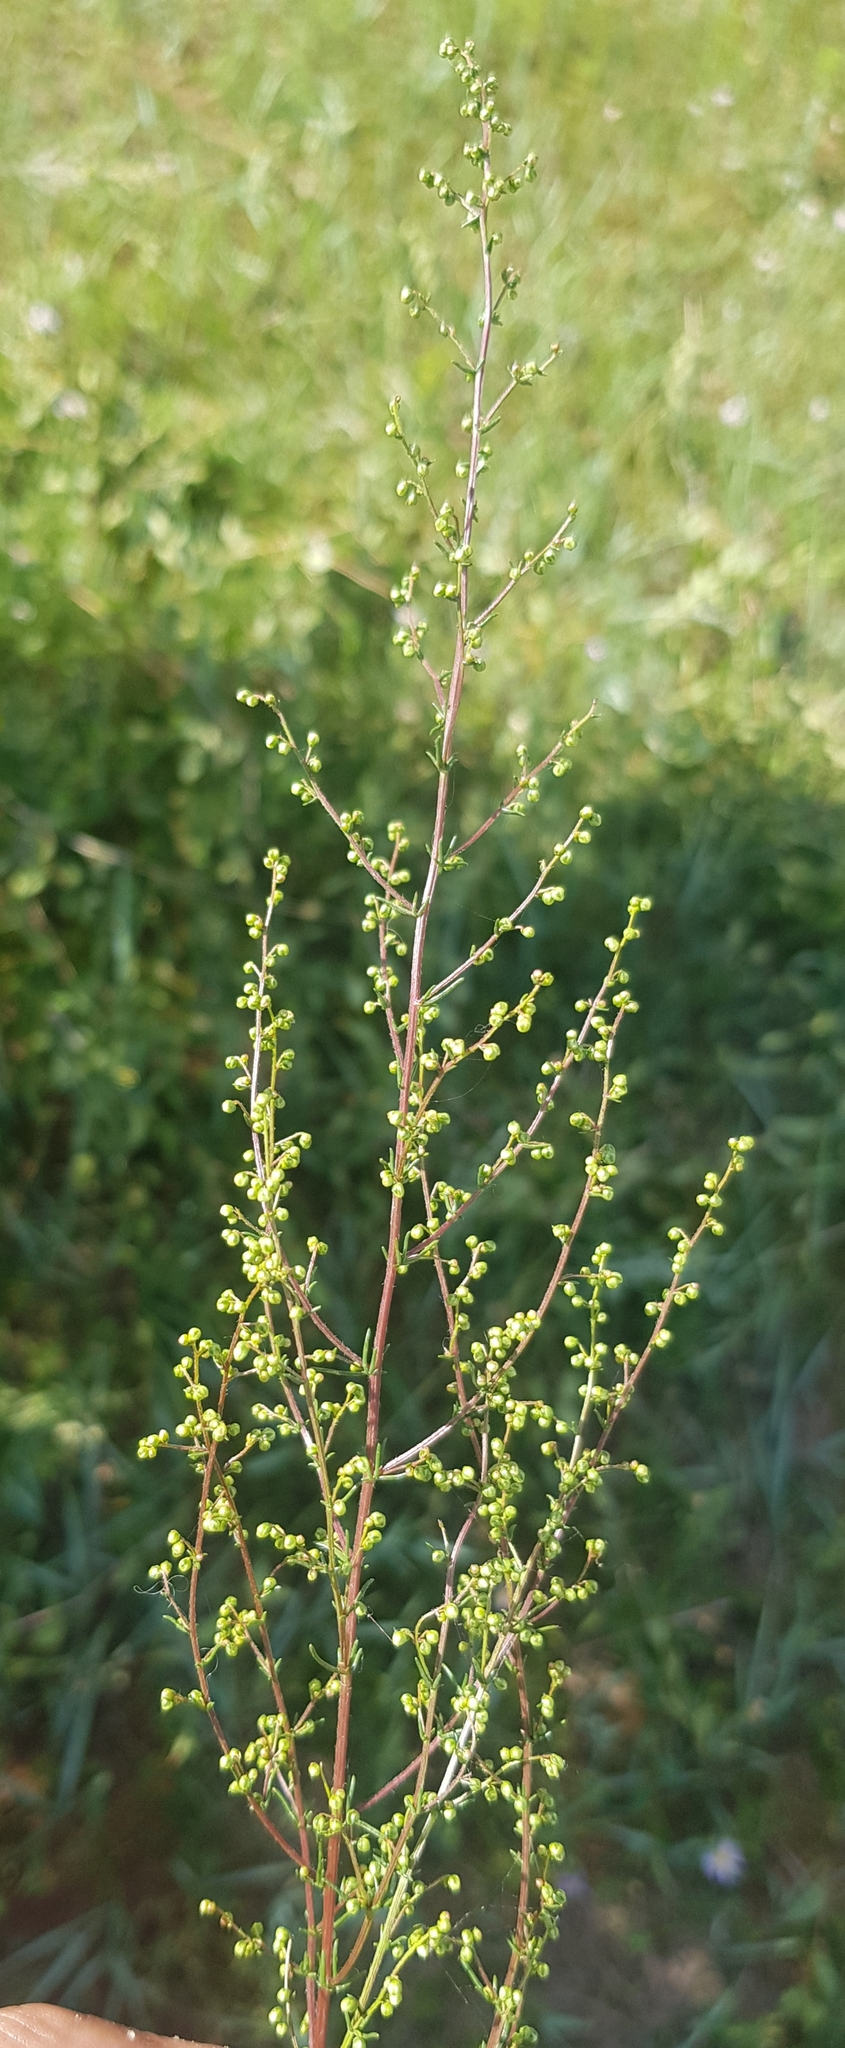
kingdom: Plantae
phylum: Tracheophyta
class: Magnoliopsida
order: Asterales
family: Asteraceae
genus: Artemisia
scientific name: Artemisia scoparia
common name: Redstem wormwood
